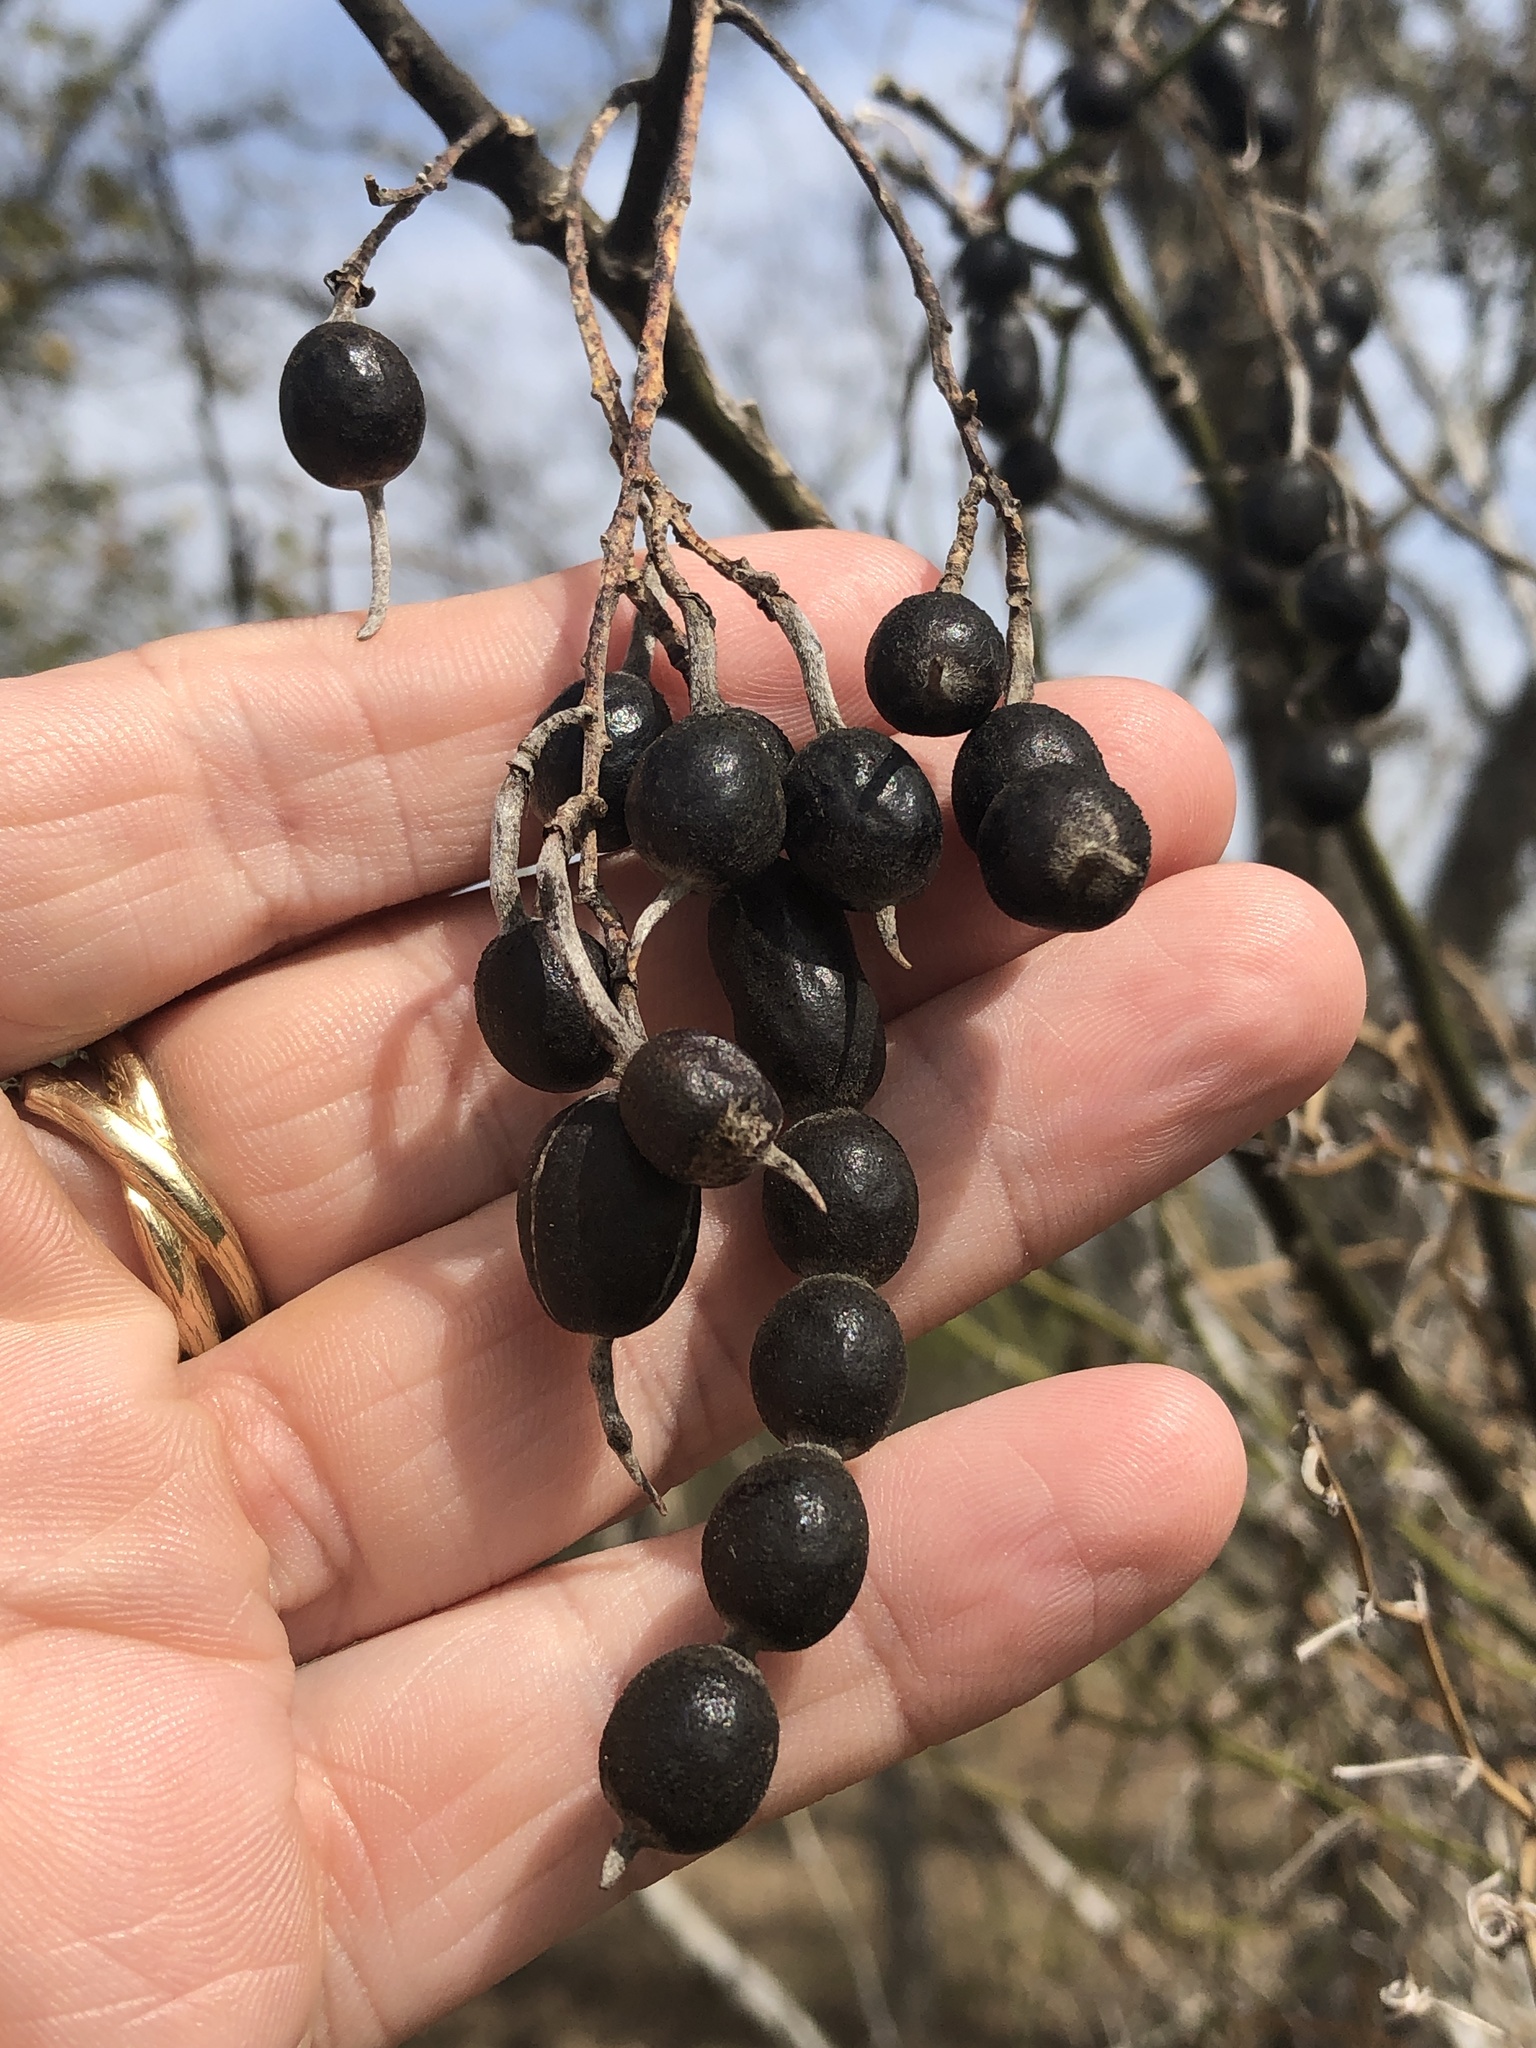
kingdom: Plantae
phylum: Tracheophyta
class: Magnoliopsida
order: Fabales
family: Fabaceae
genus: Styphnolobium
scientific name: Styphnolobium affine
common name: Texas sophora
